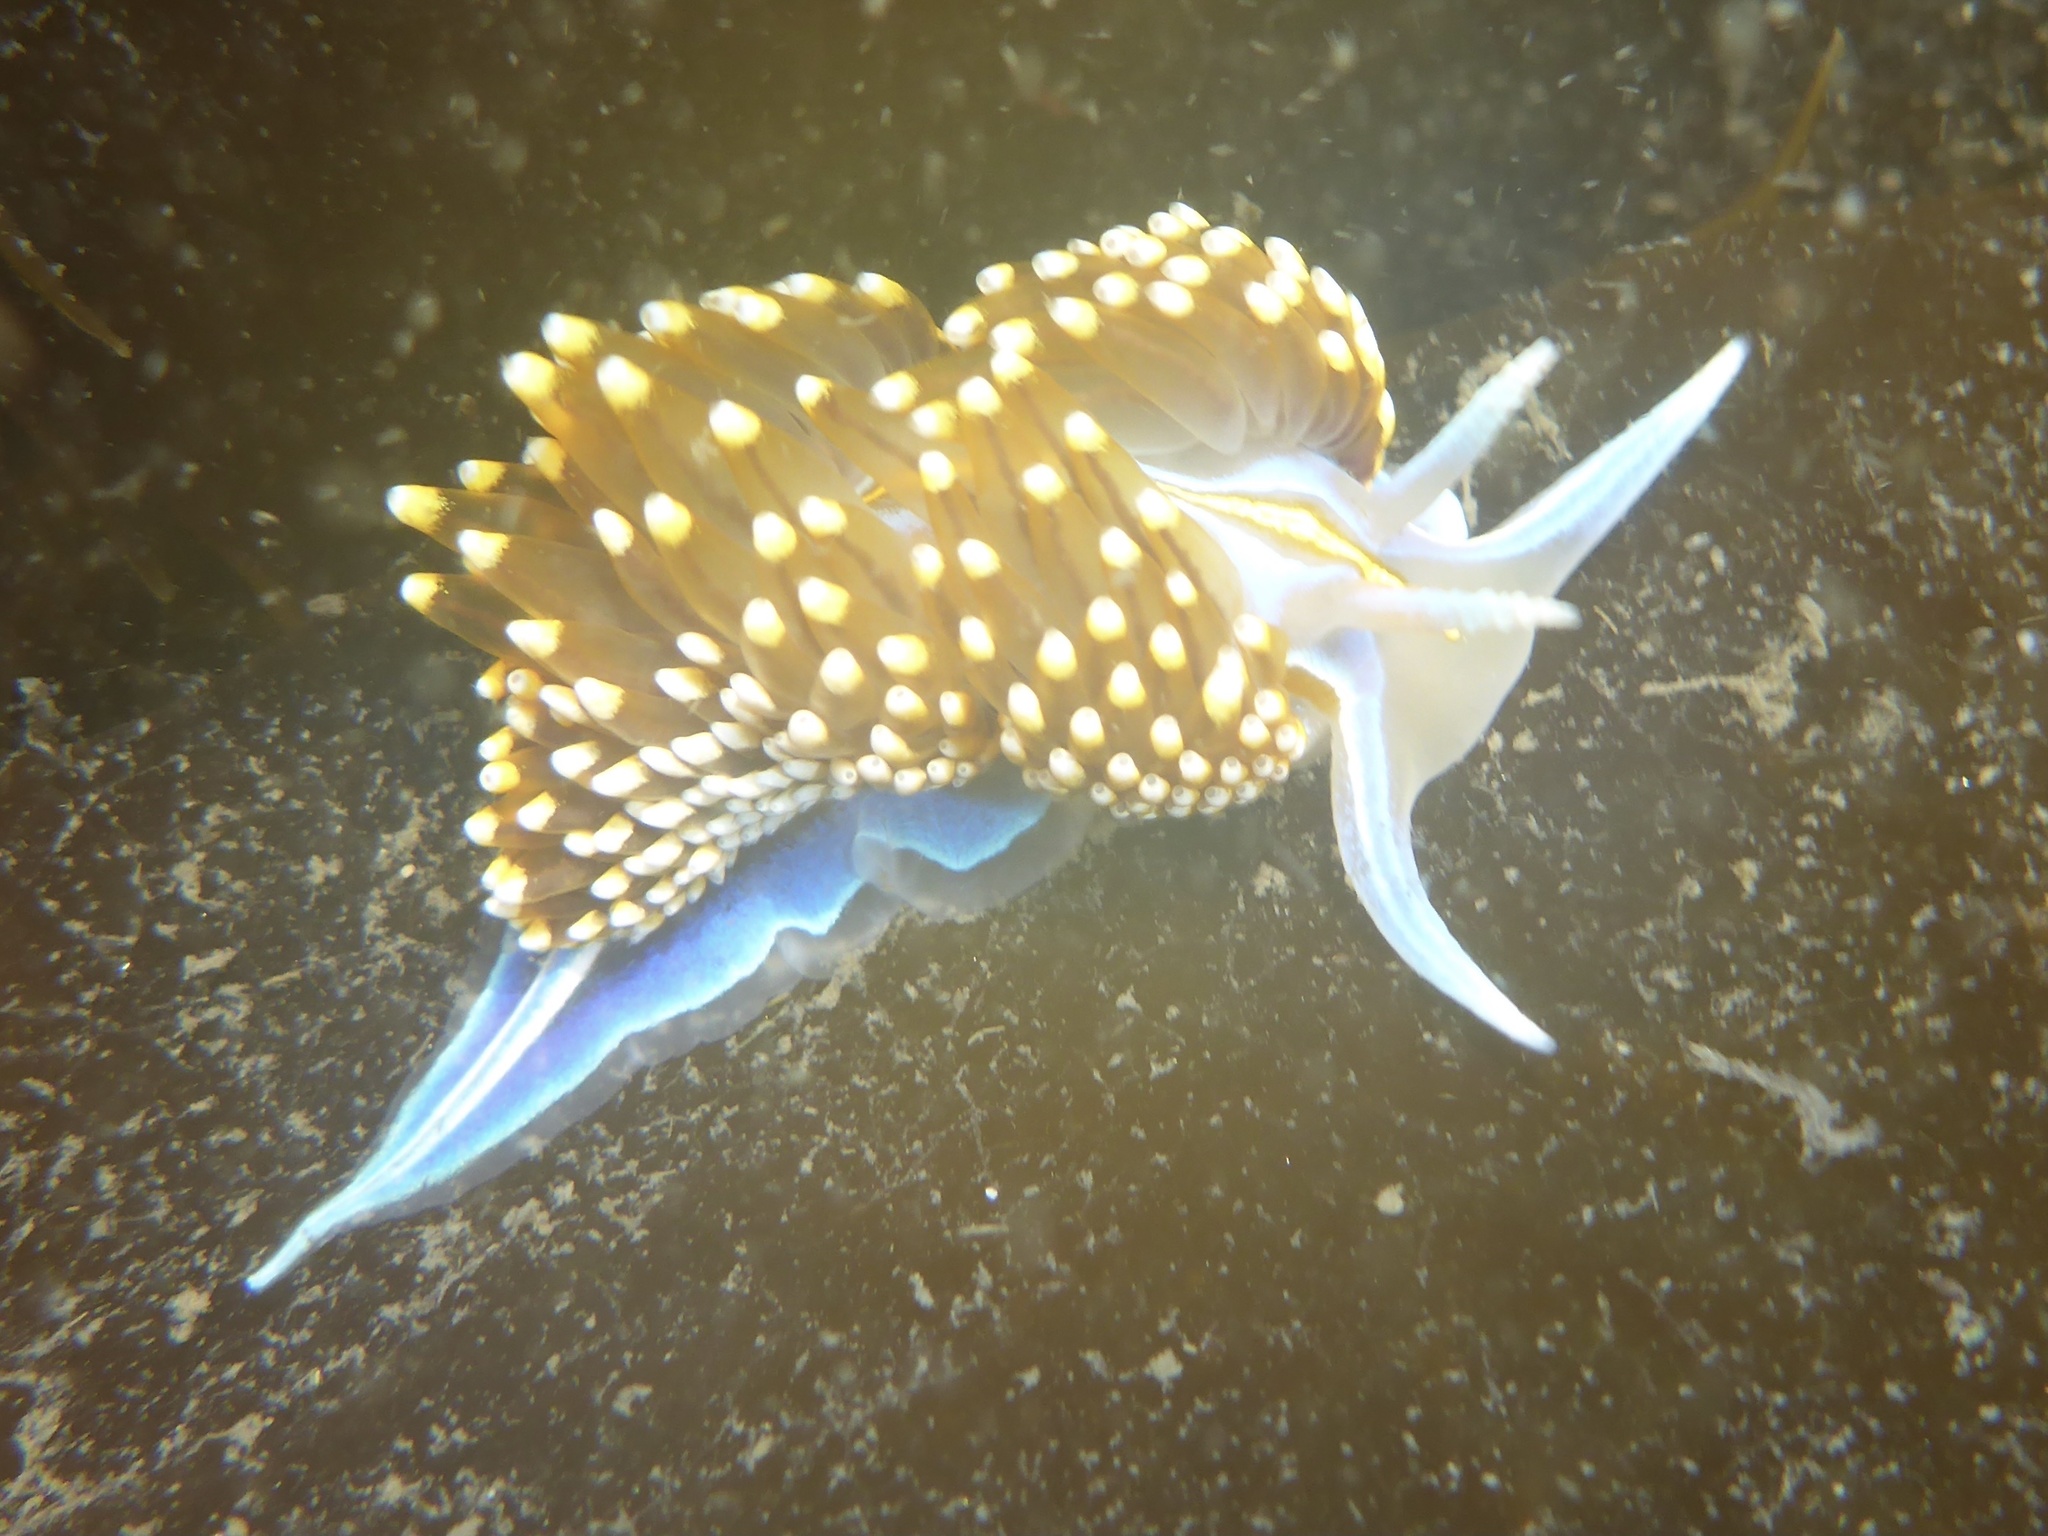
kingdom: Animalia
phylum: Mollusca
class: Gastropoda
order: Nudibranchia
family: Myrrhinidae
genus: Hermissenda
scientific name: Hermissenda opalescens
